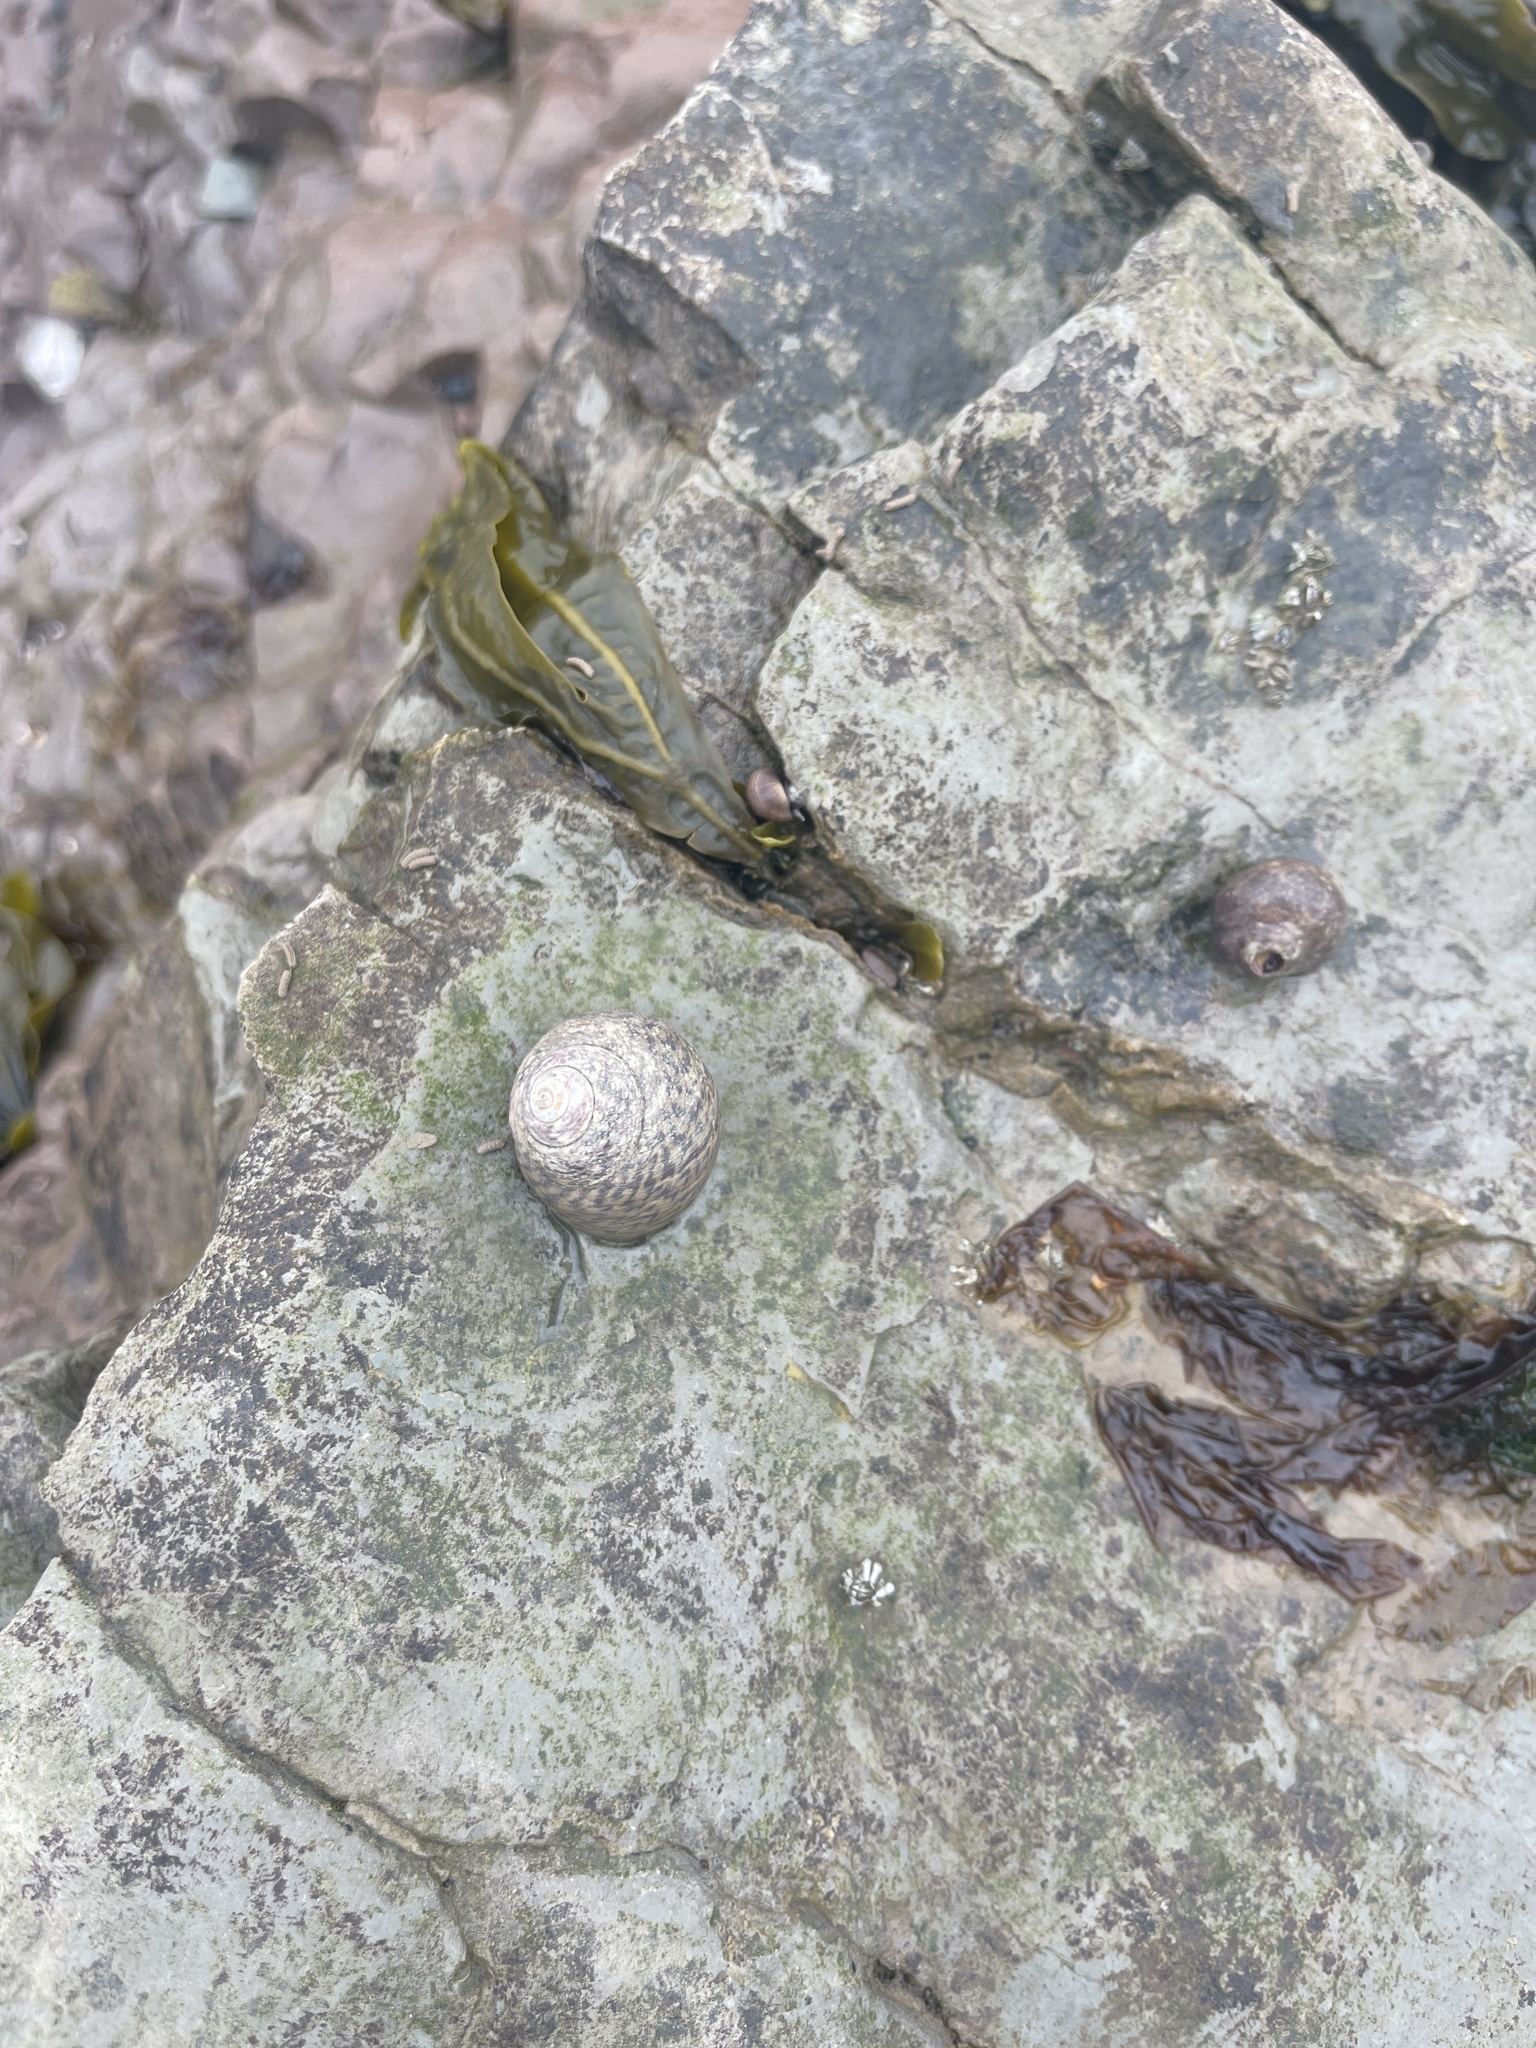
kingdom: Animalia
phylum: Mollusca
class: Gastropoda
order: Trochida
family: Trochidae
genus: Phorcus
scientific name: Phorcus lineatus
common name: Toothed top shell
